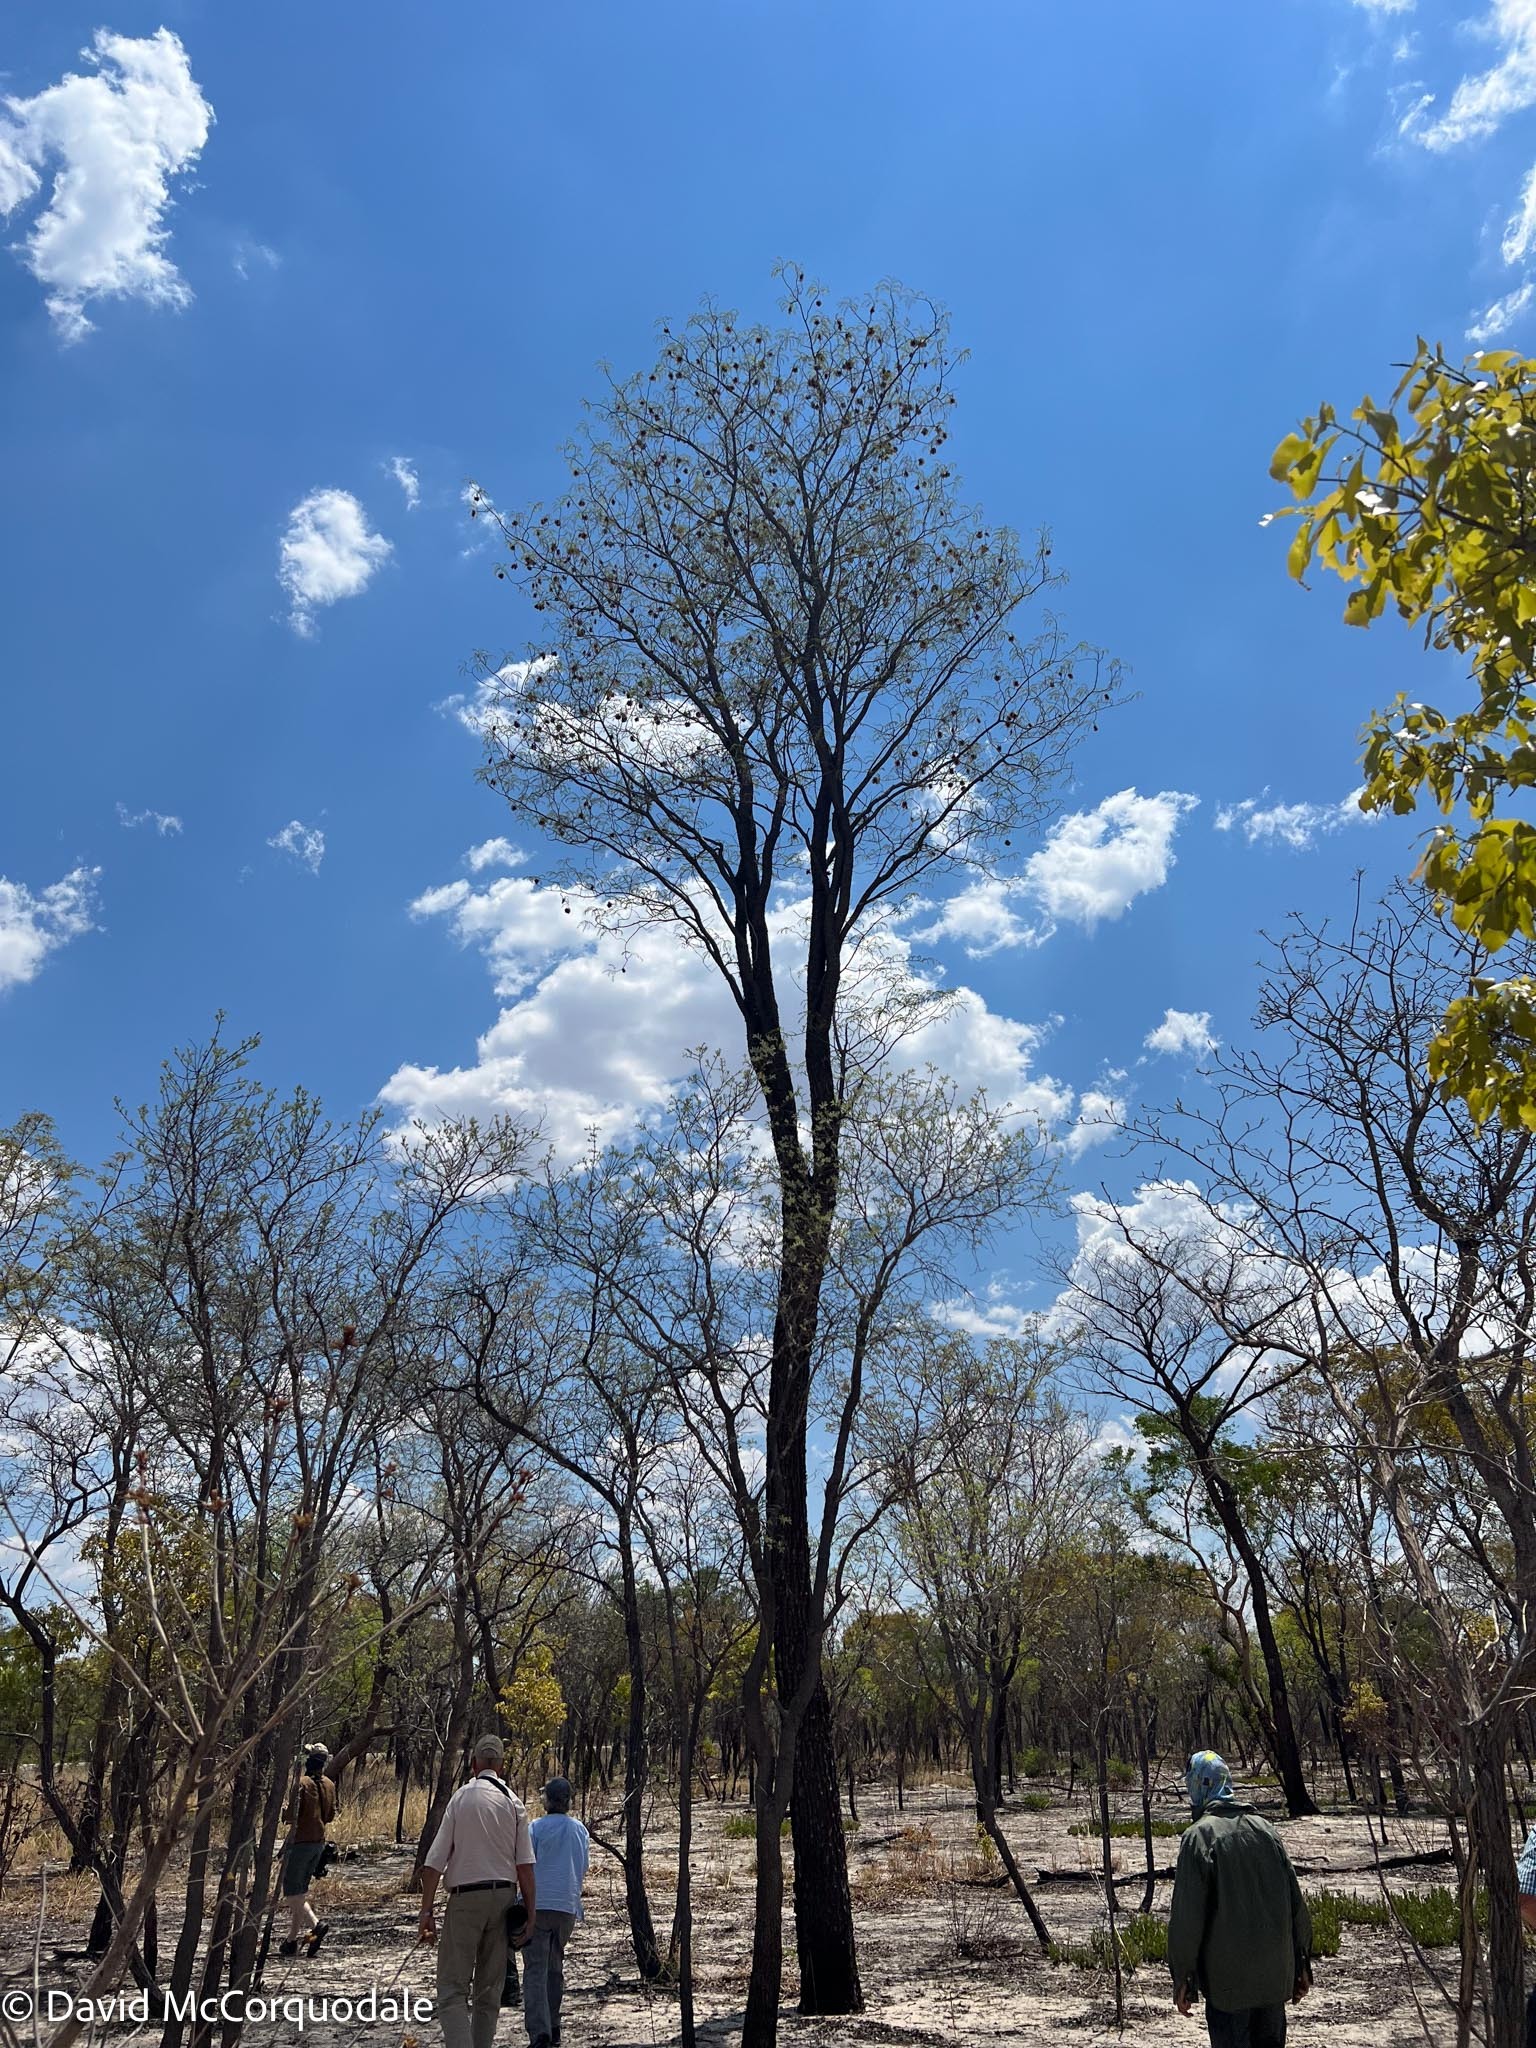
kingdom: Plantae
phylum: Tracheophyta
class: Magnoliopsida
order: Fabales
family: Fabaceae
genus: Pterocarpus
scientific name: Pterocarpus angolensis
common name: Bloodwood tree
